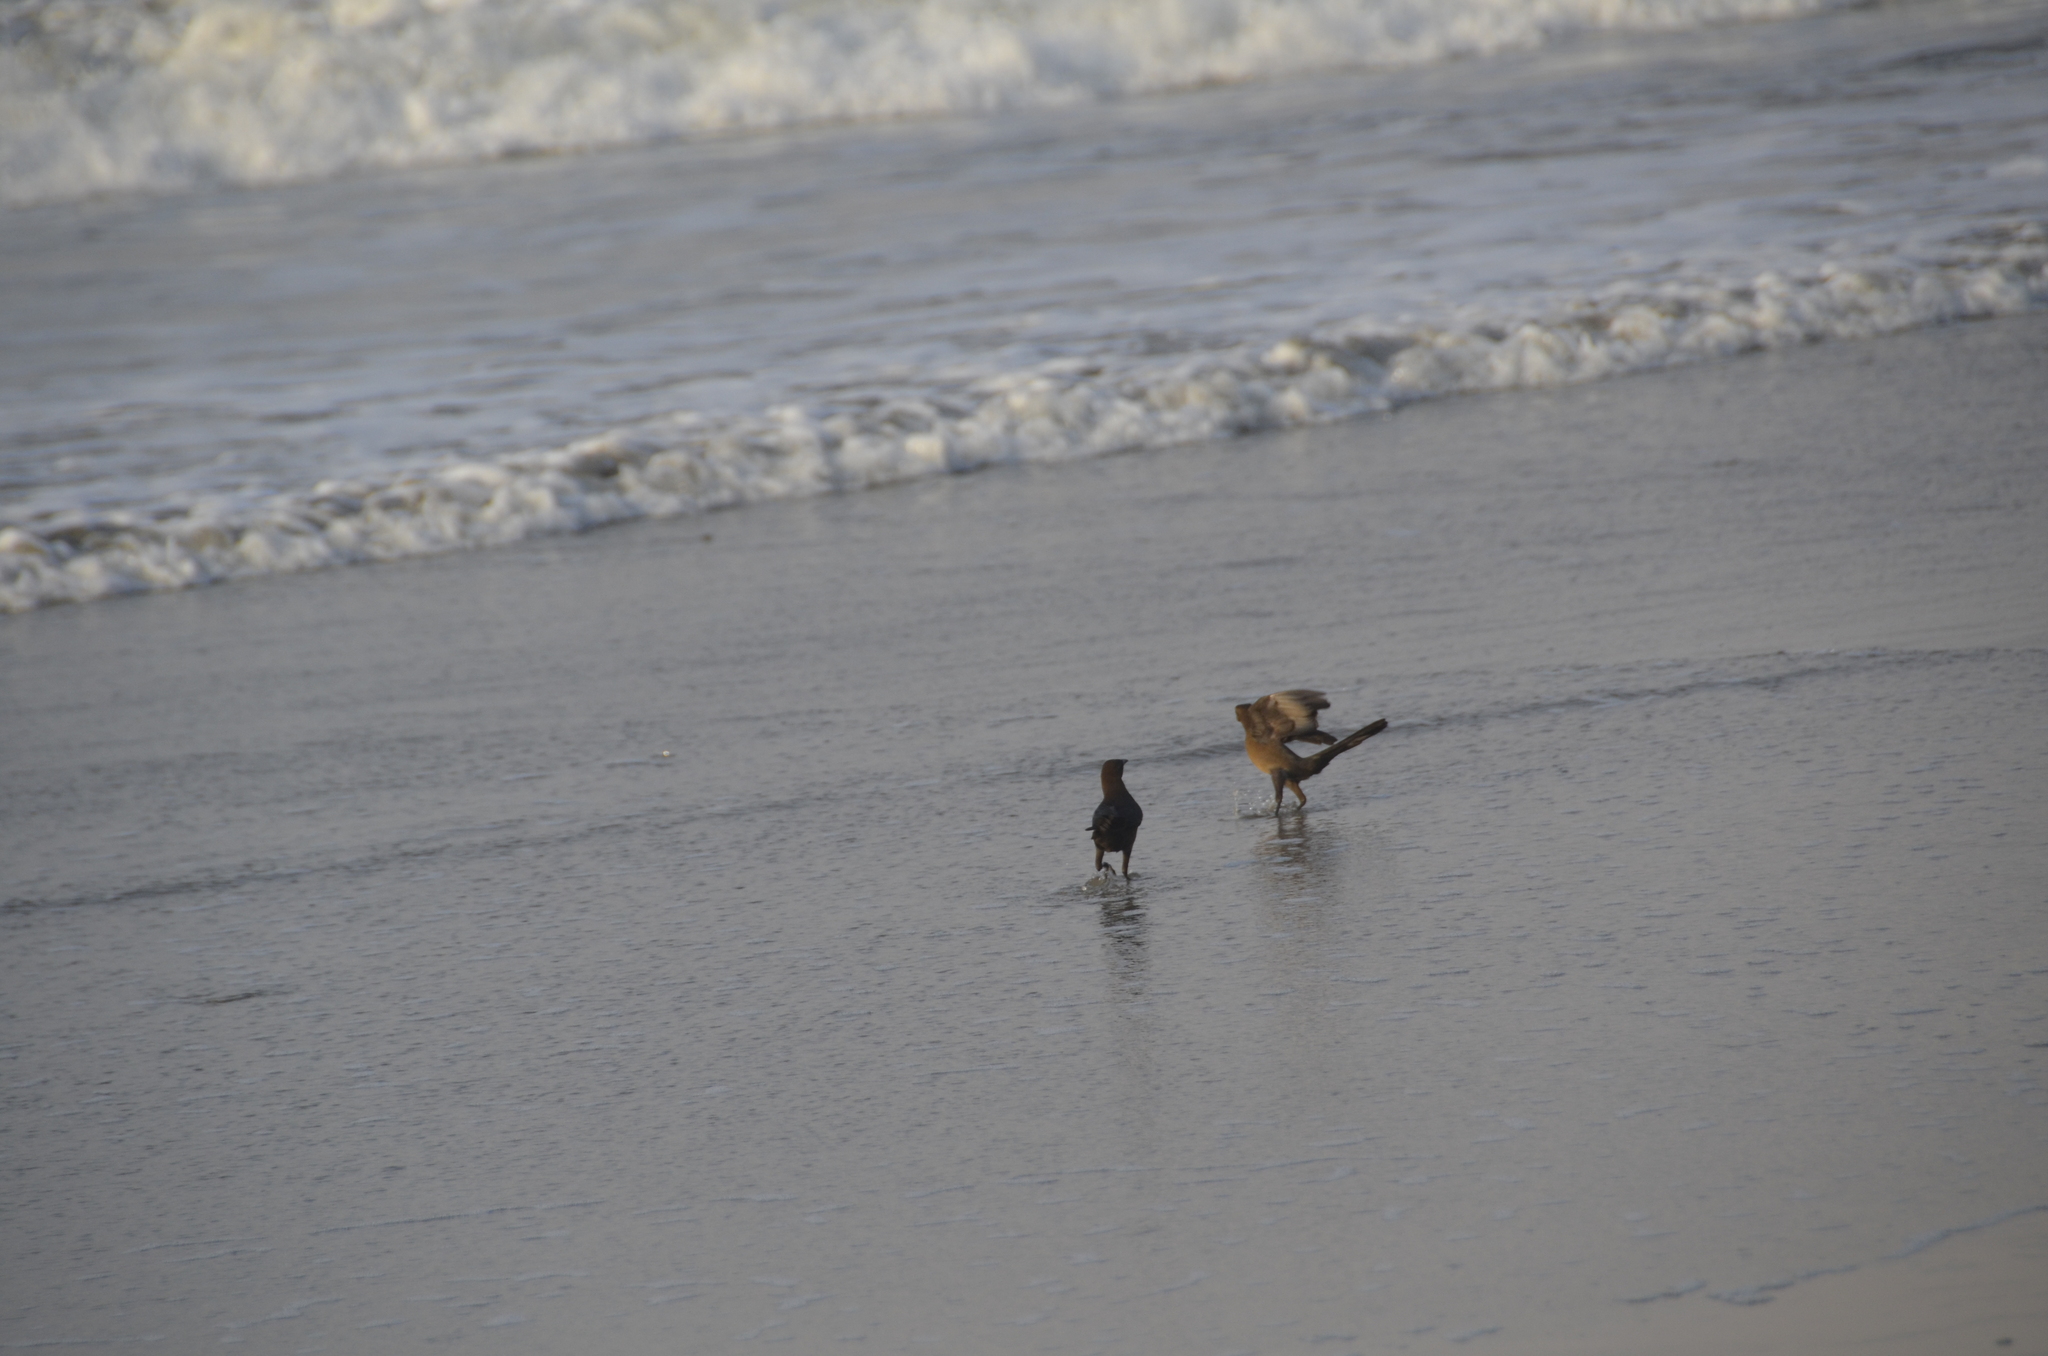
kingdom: Animalia
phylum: Chordata
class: Aves
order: Passeriformes
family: Icteridae
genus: Quiscalus
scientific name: Quiscalus mexicanus
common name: Great-tailed grackle
